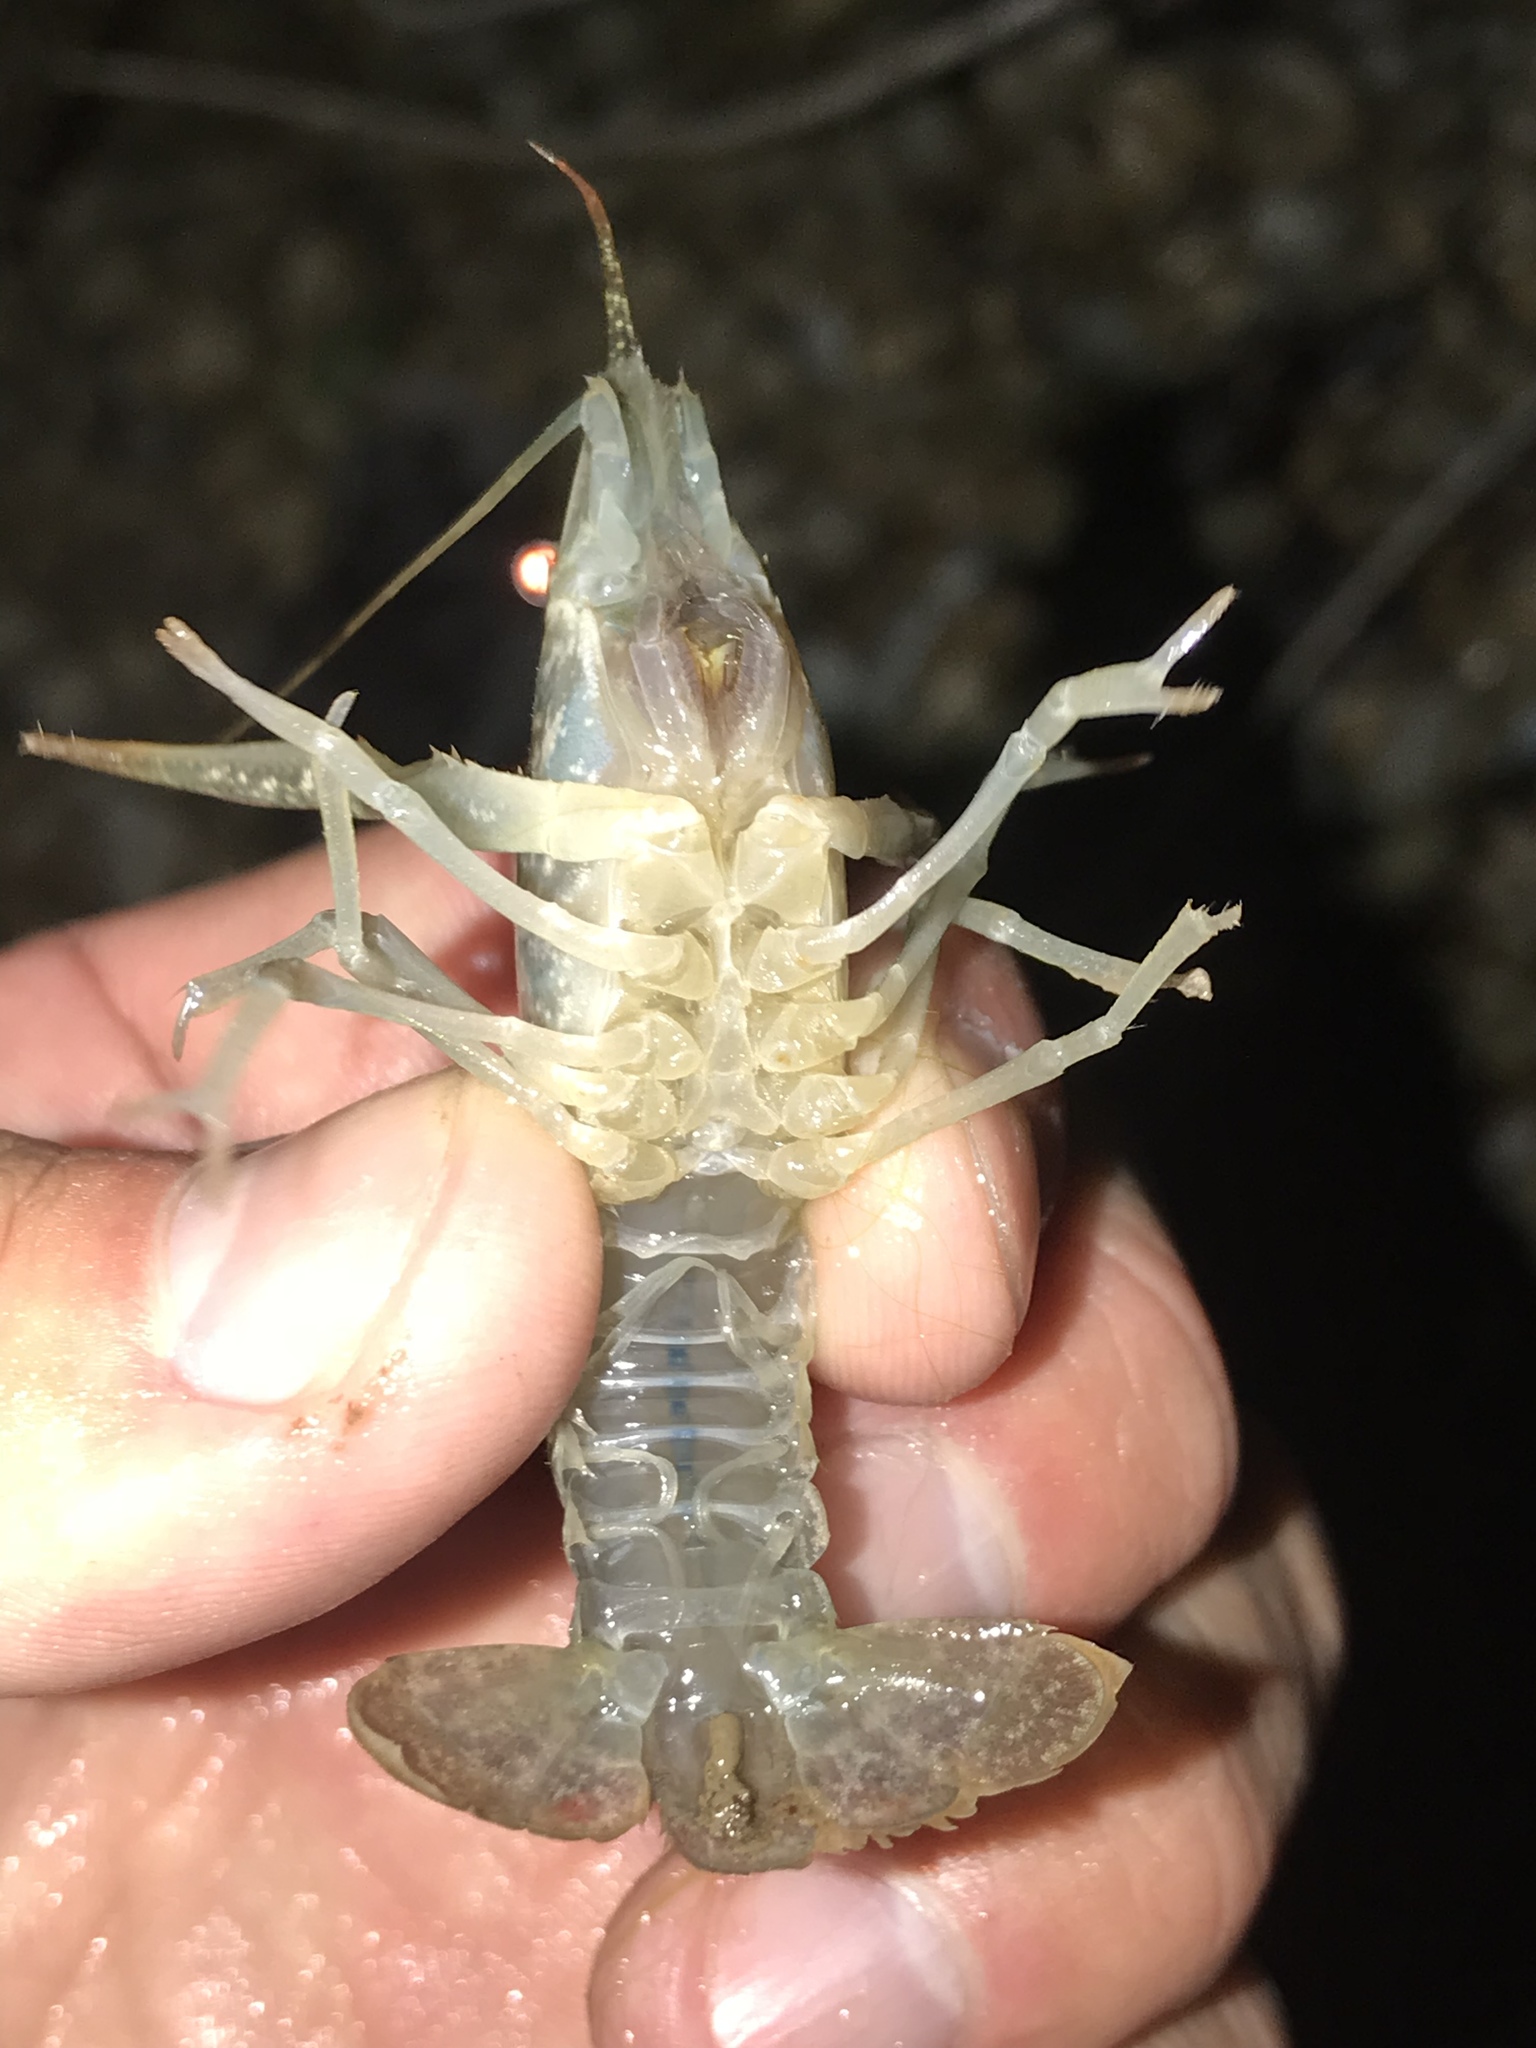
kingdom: Animalia
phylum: Arthropoda
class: Malacostraca
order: Decapoda
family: Cambaridae
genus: Procambarus
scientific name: Procambarus clarkii
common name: Red swamp crayfish
